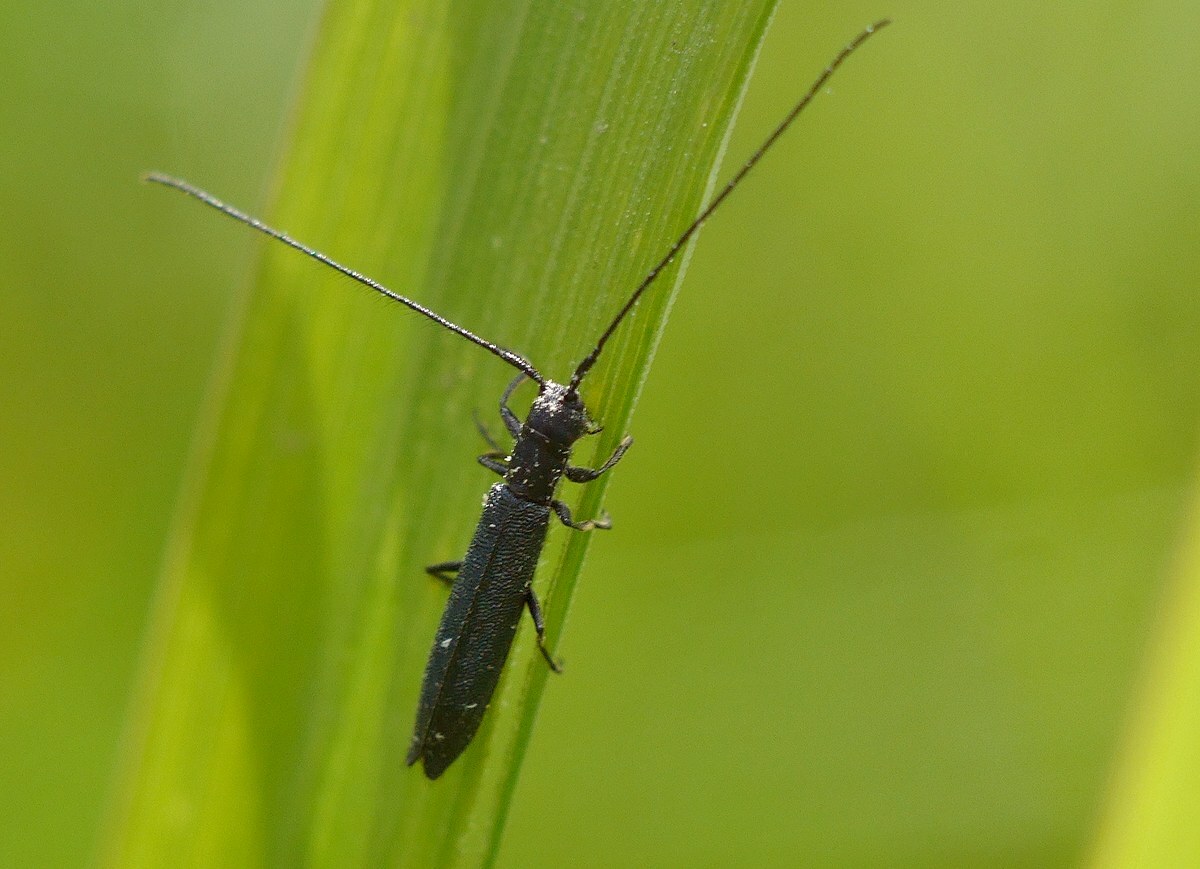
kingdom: Animalia
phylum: Arthropoda
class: Insecta
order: Coleoptera
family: Cerambycidae
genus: Theophilea
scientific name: Theophilea subcylindricollis
